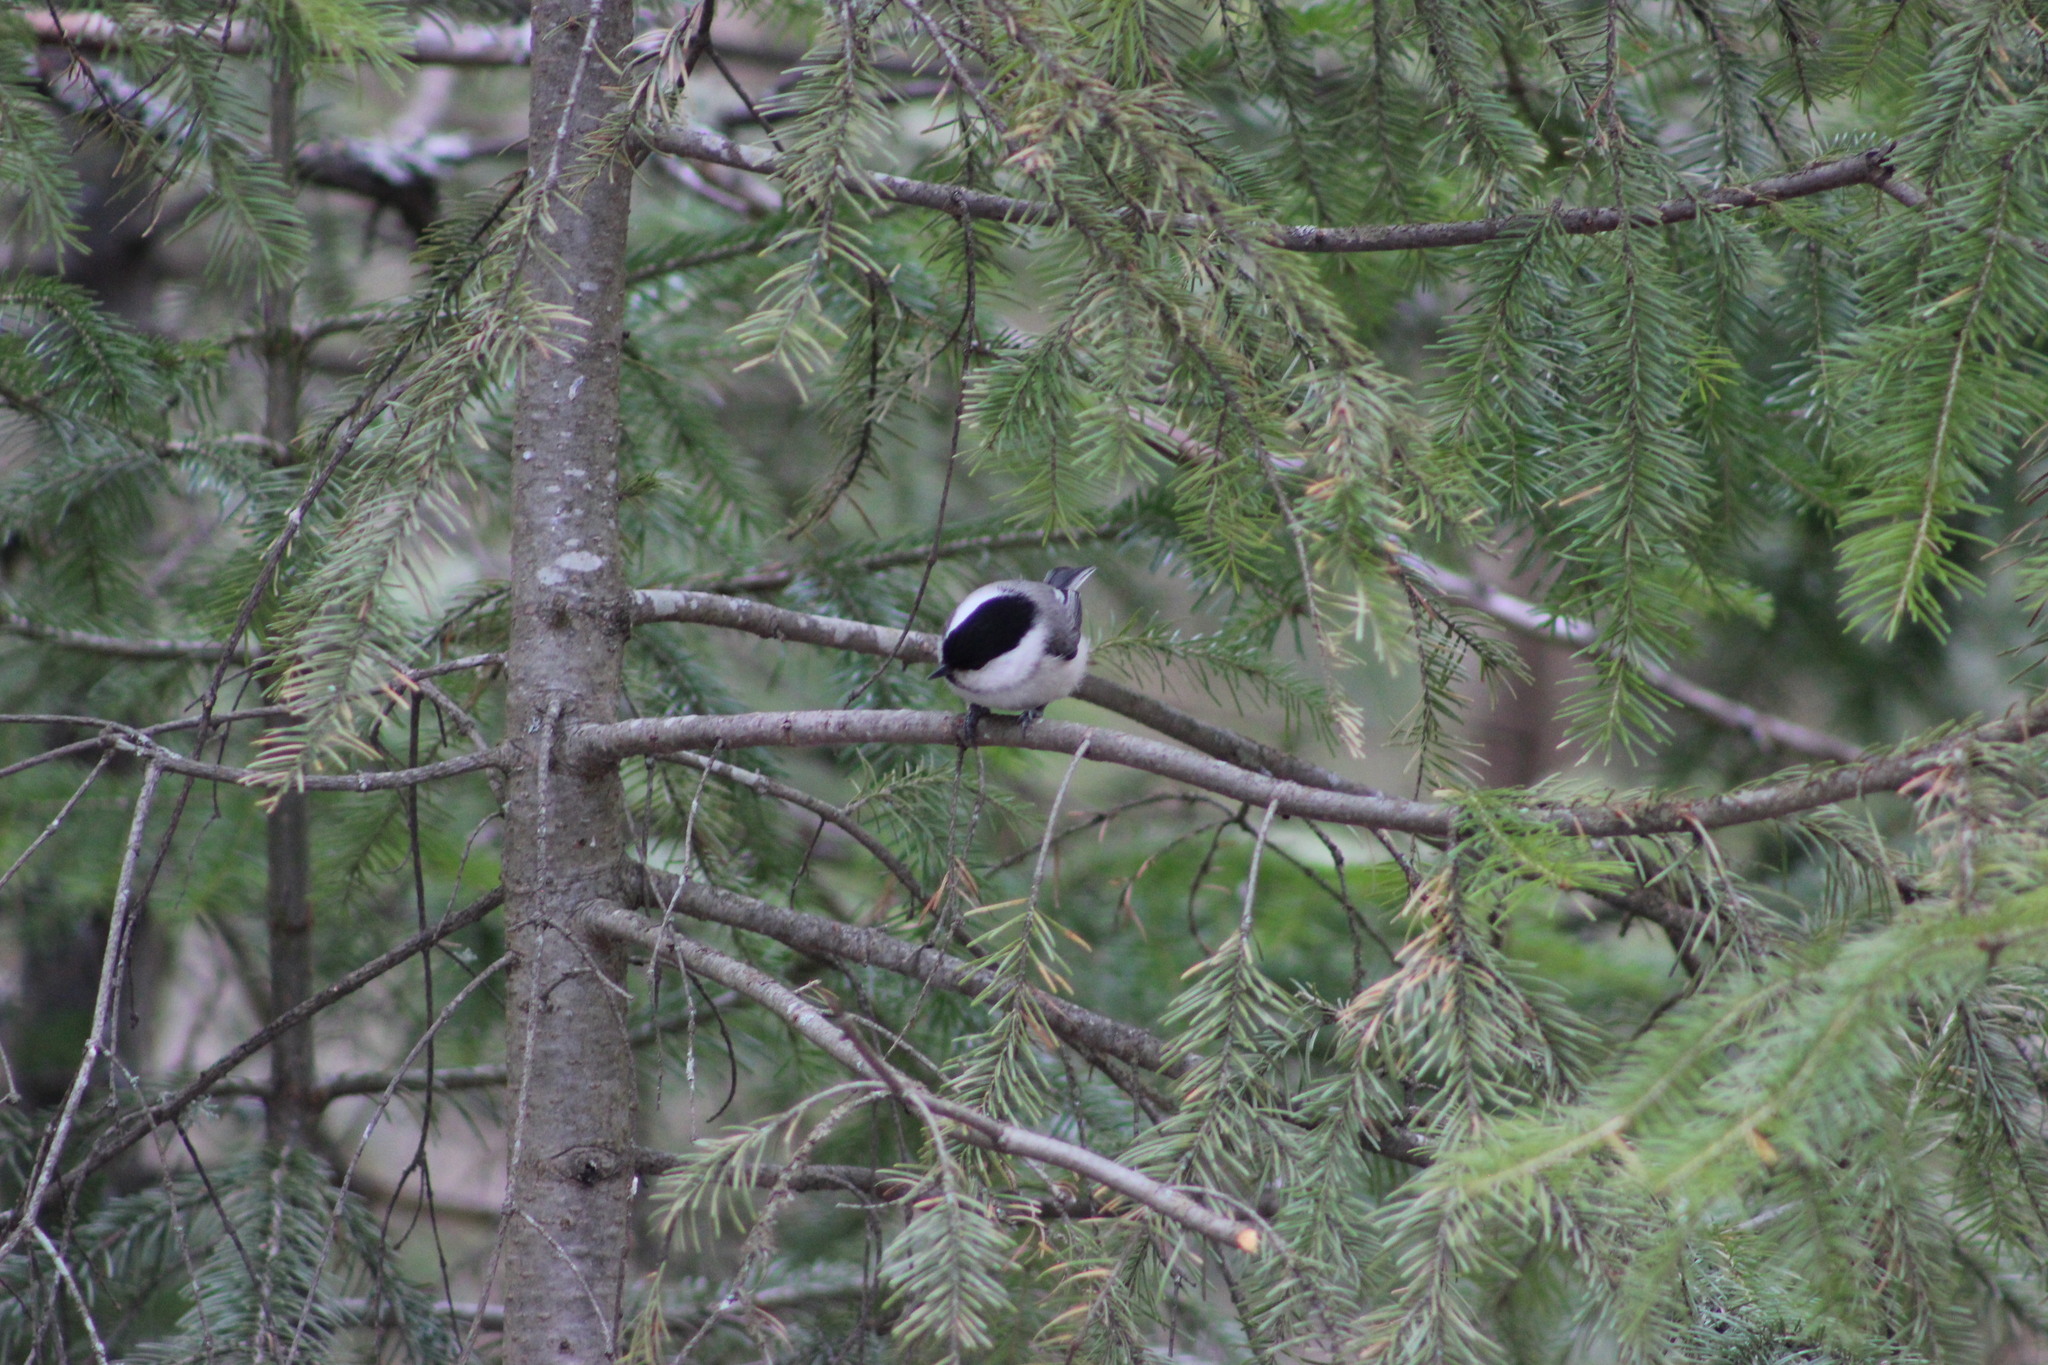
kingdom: Animalia
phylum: Chordata
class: Aves
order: Passeriformes
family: Paridae
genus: Poecile
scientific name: Poecile montanus
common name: Willow tit
